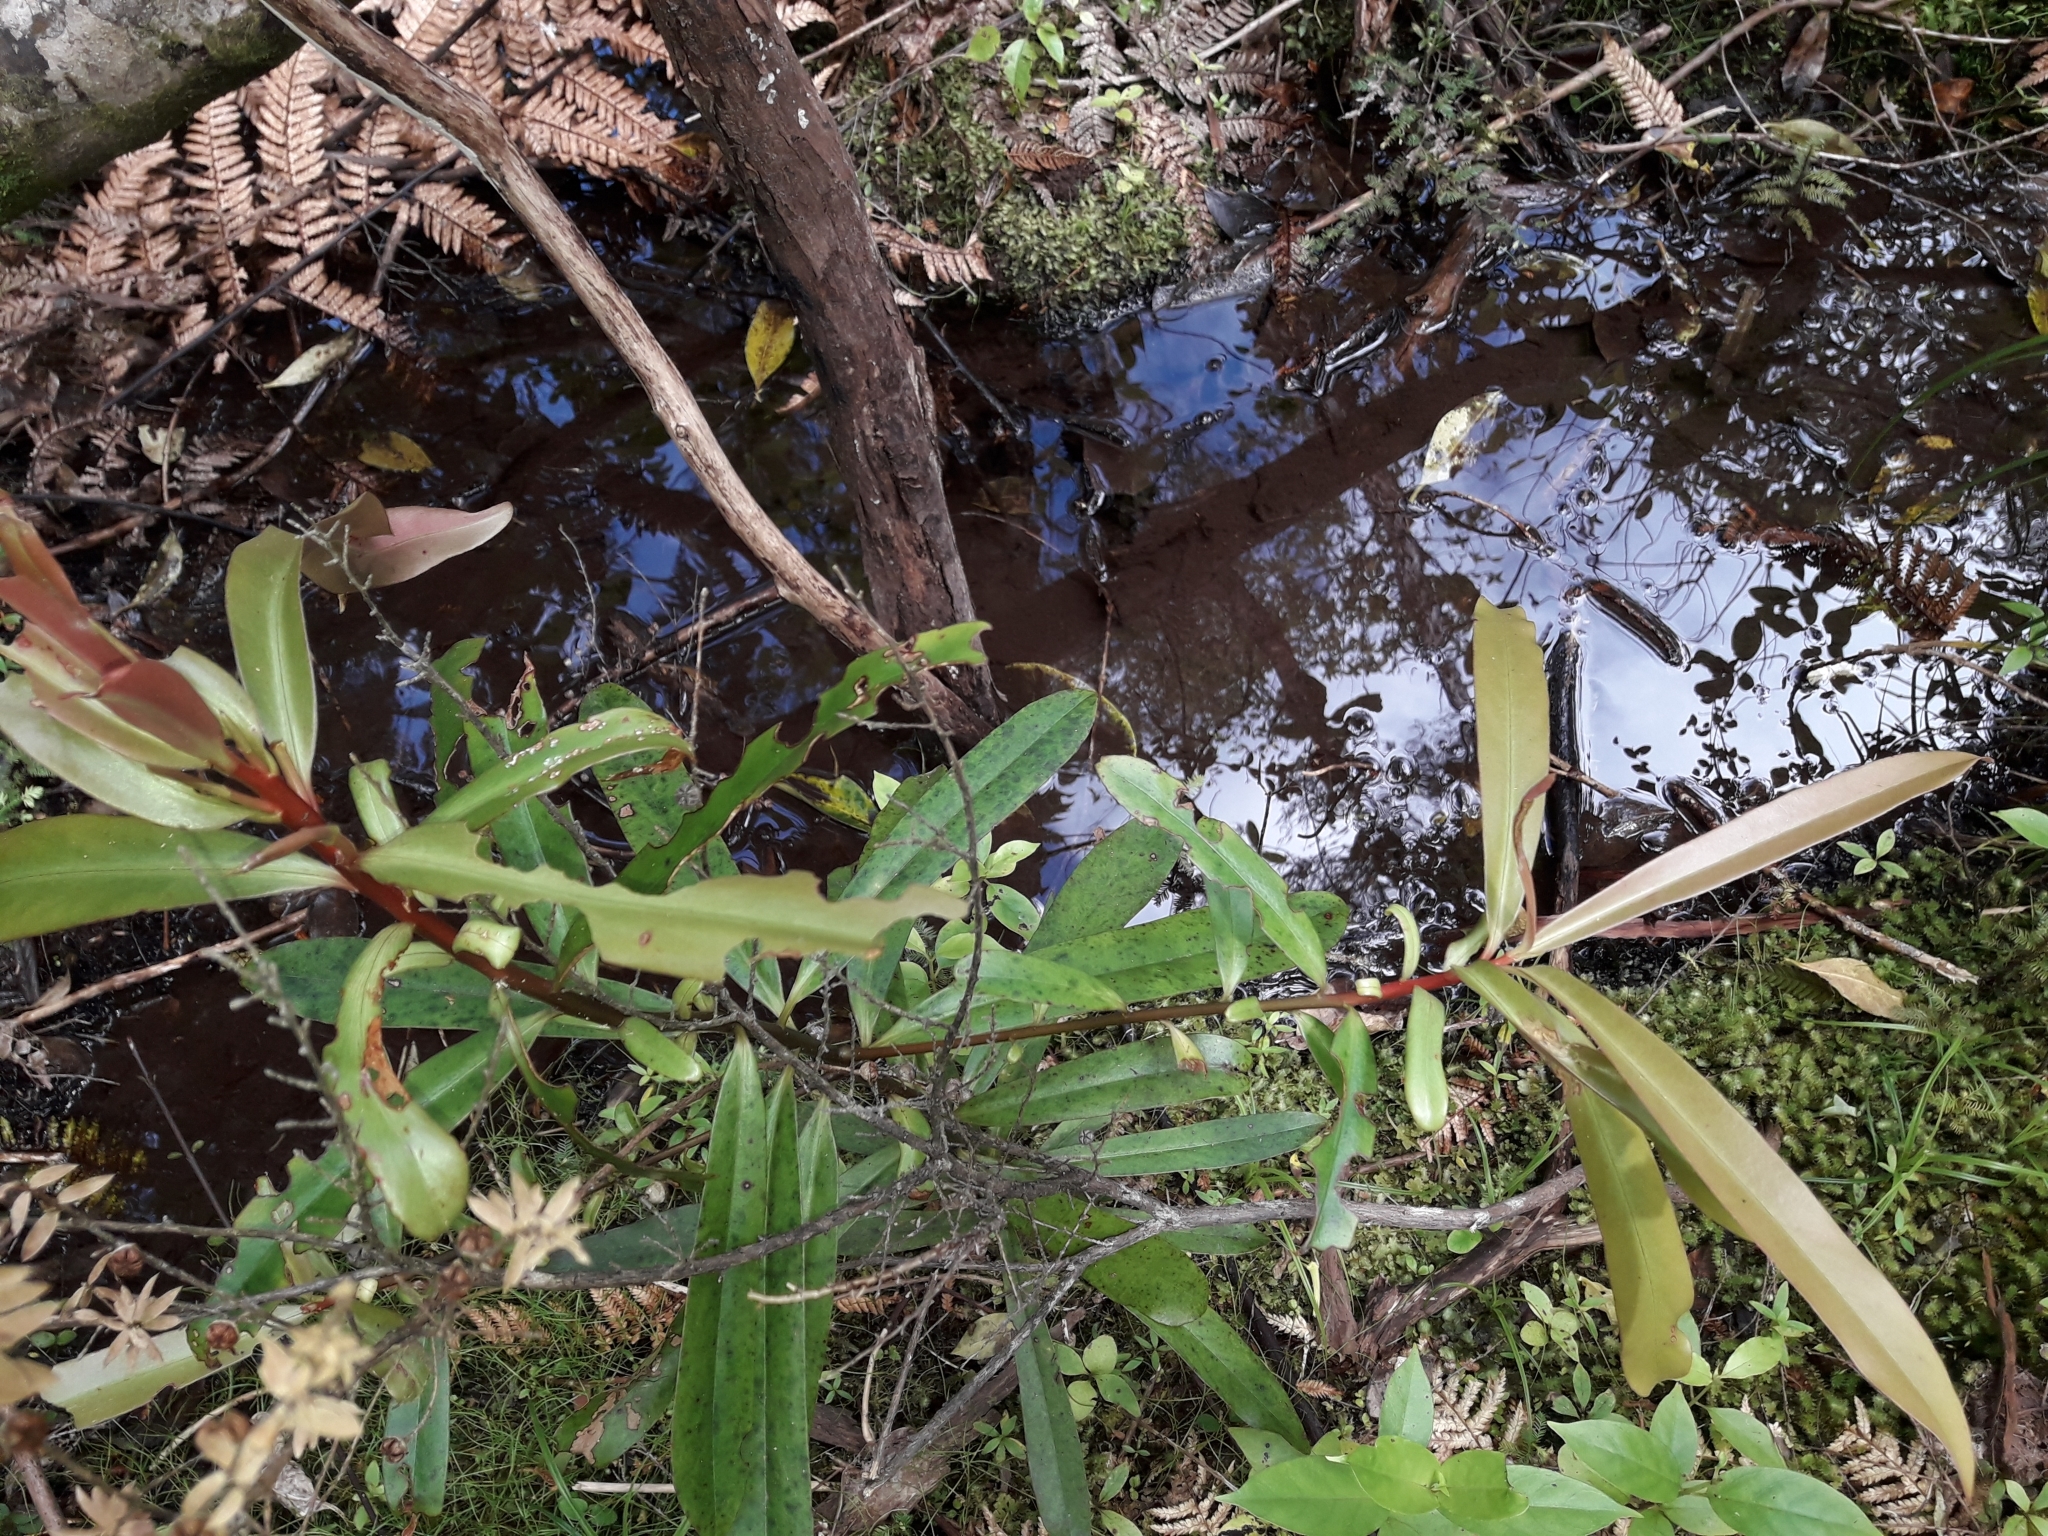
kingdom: Plantae
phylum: Tracheophyta
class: Magnoliopsida
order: Ericales
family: Primulaceae
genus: Myrsine
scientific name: Myrsine salicina
